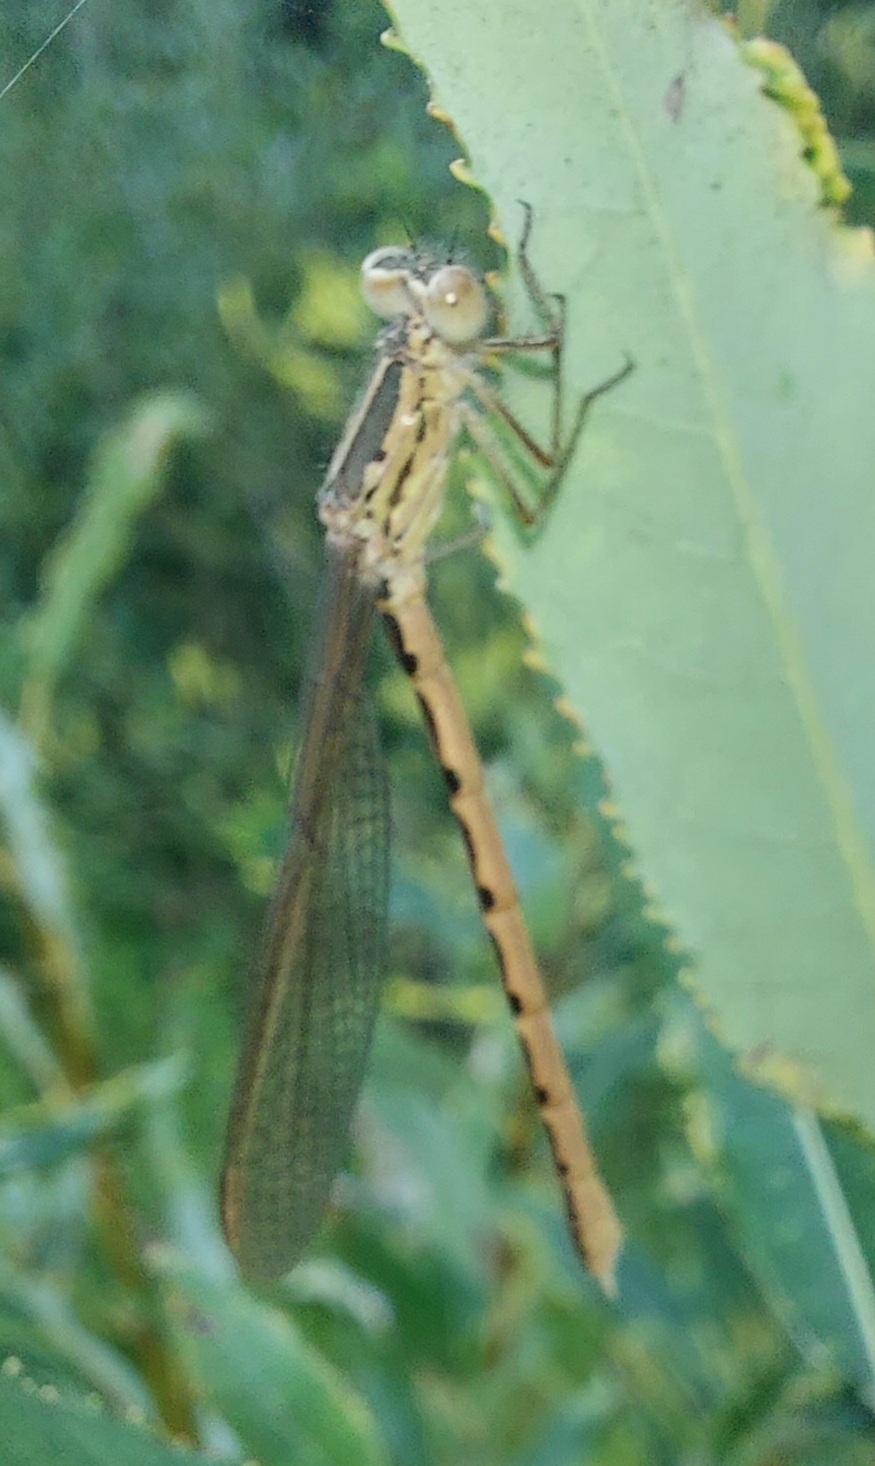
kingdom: Animalia
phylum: Arthropoda
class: Insecta
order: Odonata
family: Lestidae
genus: Sympecma
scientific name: Sympecma paedisca
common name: Siberian winter damsel
